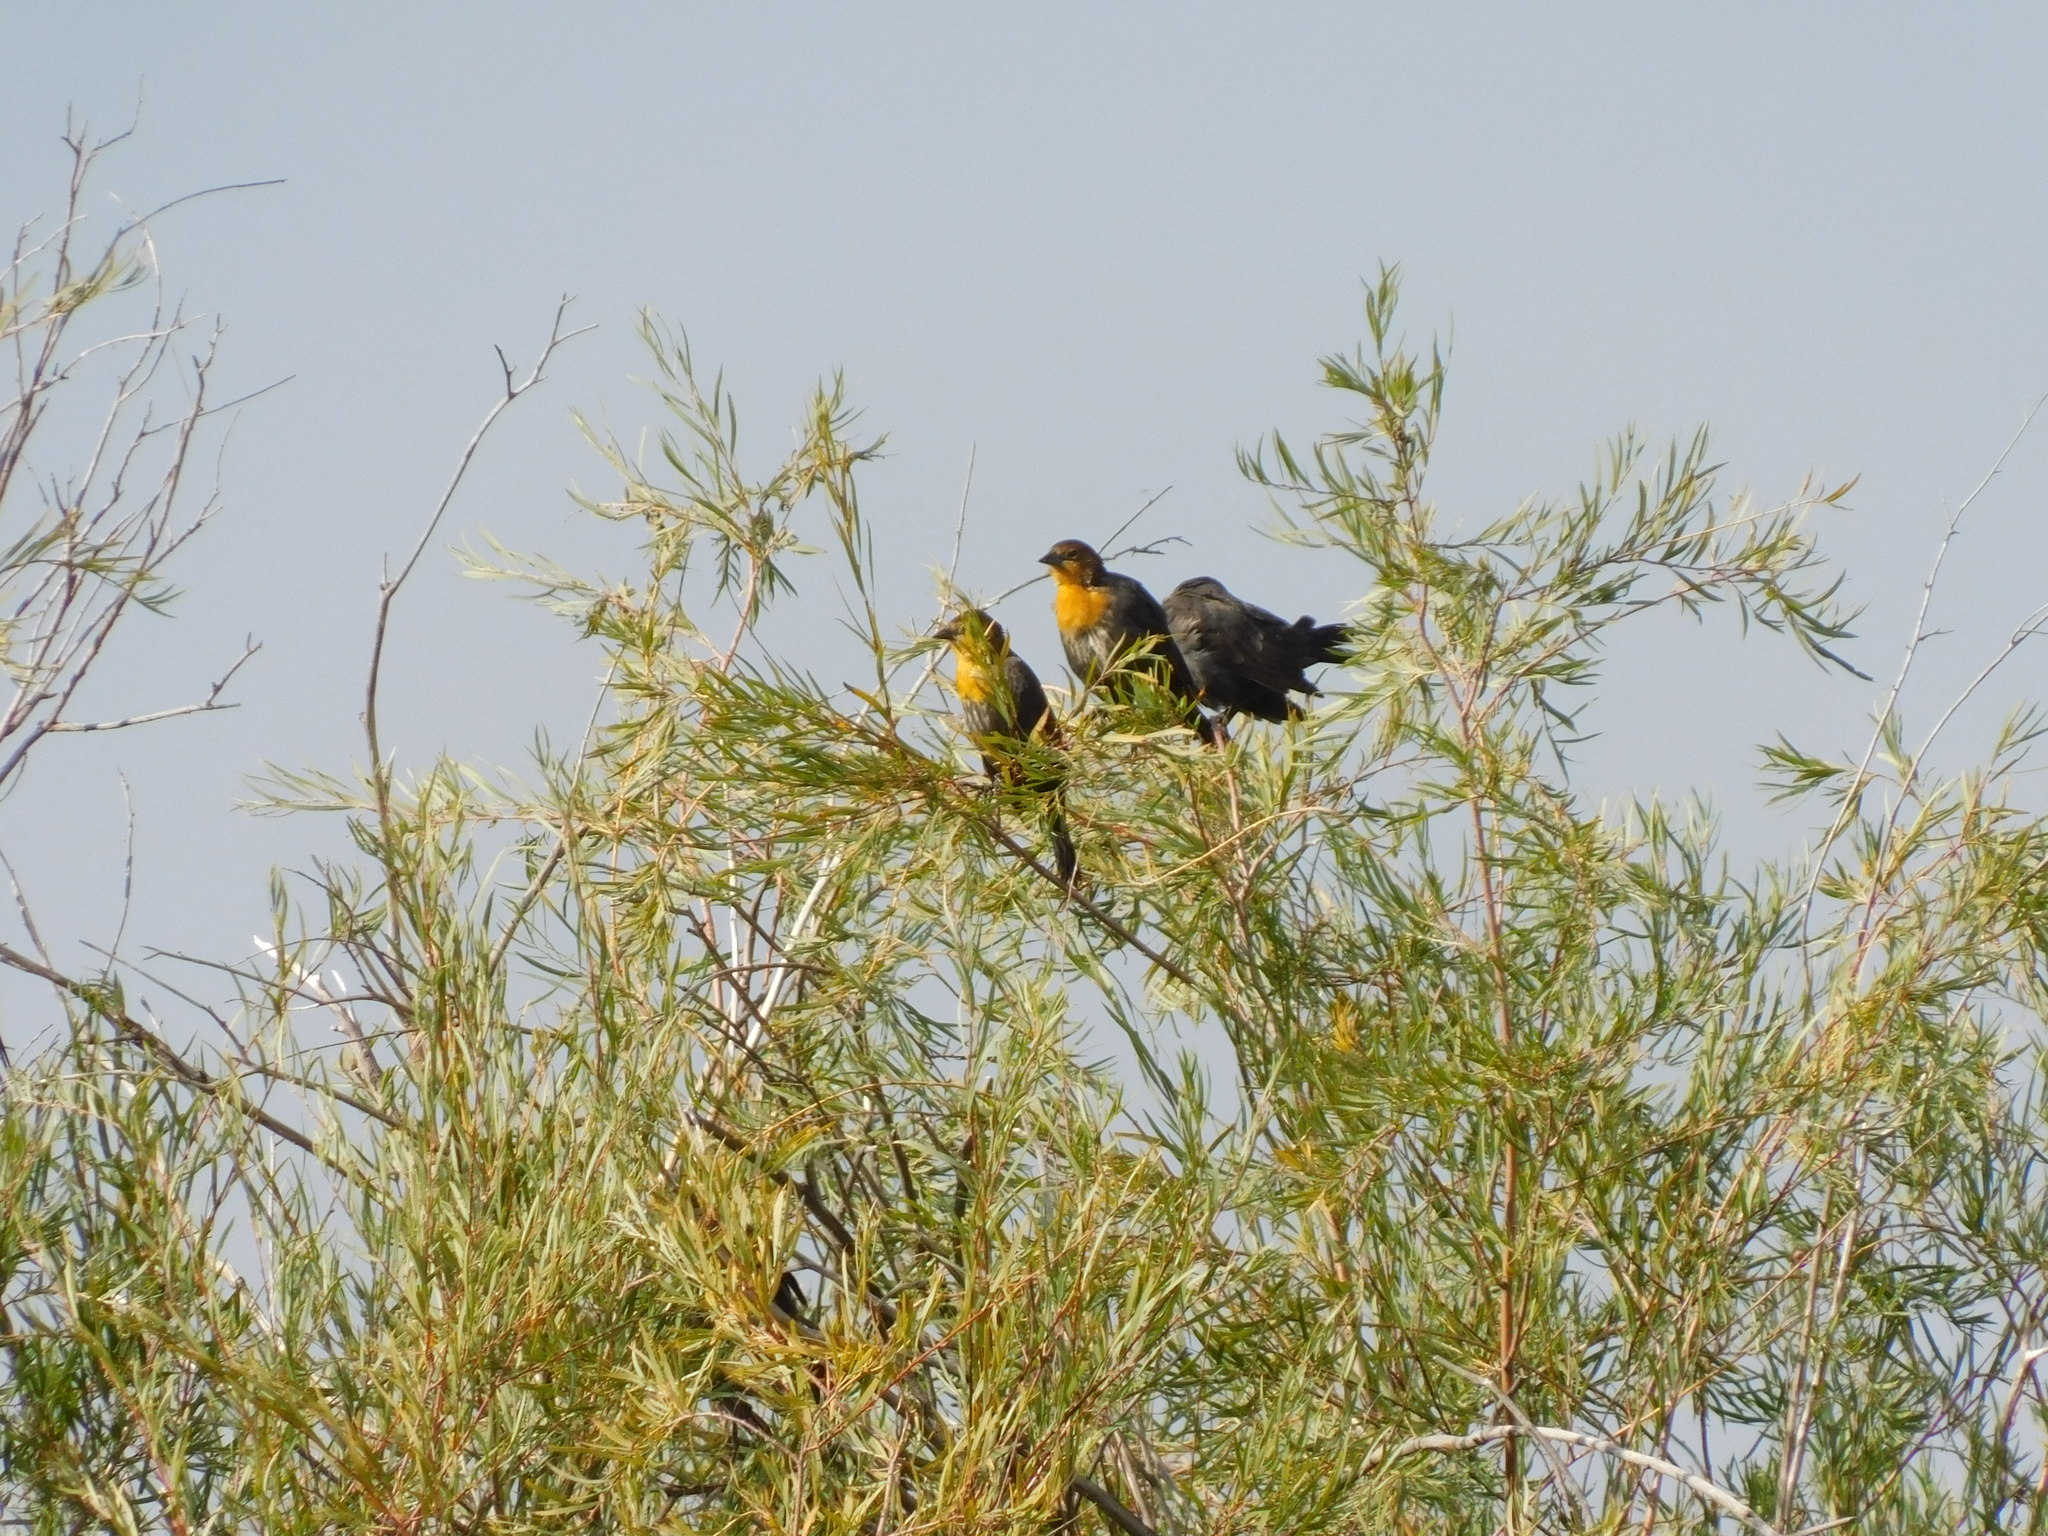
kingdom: Animalia
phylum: Chordata
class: Aves
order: Passeriformes
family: Icteridae
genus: Xanthocephalus
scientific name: Xanthocephalus xanthocephalus
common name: Yellow-headed blackbird
